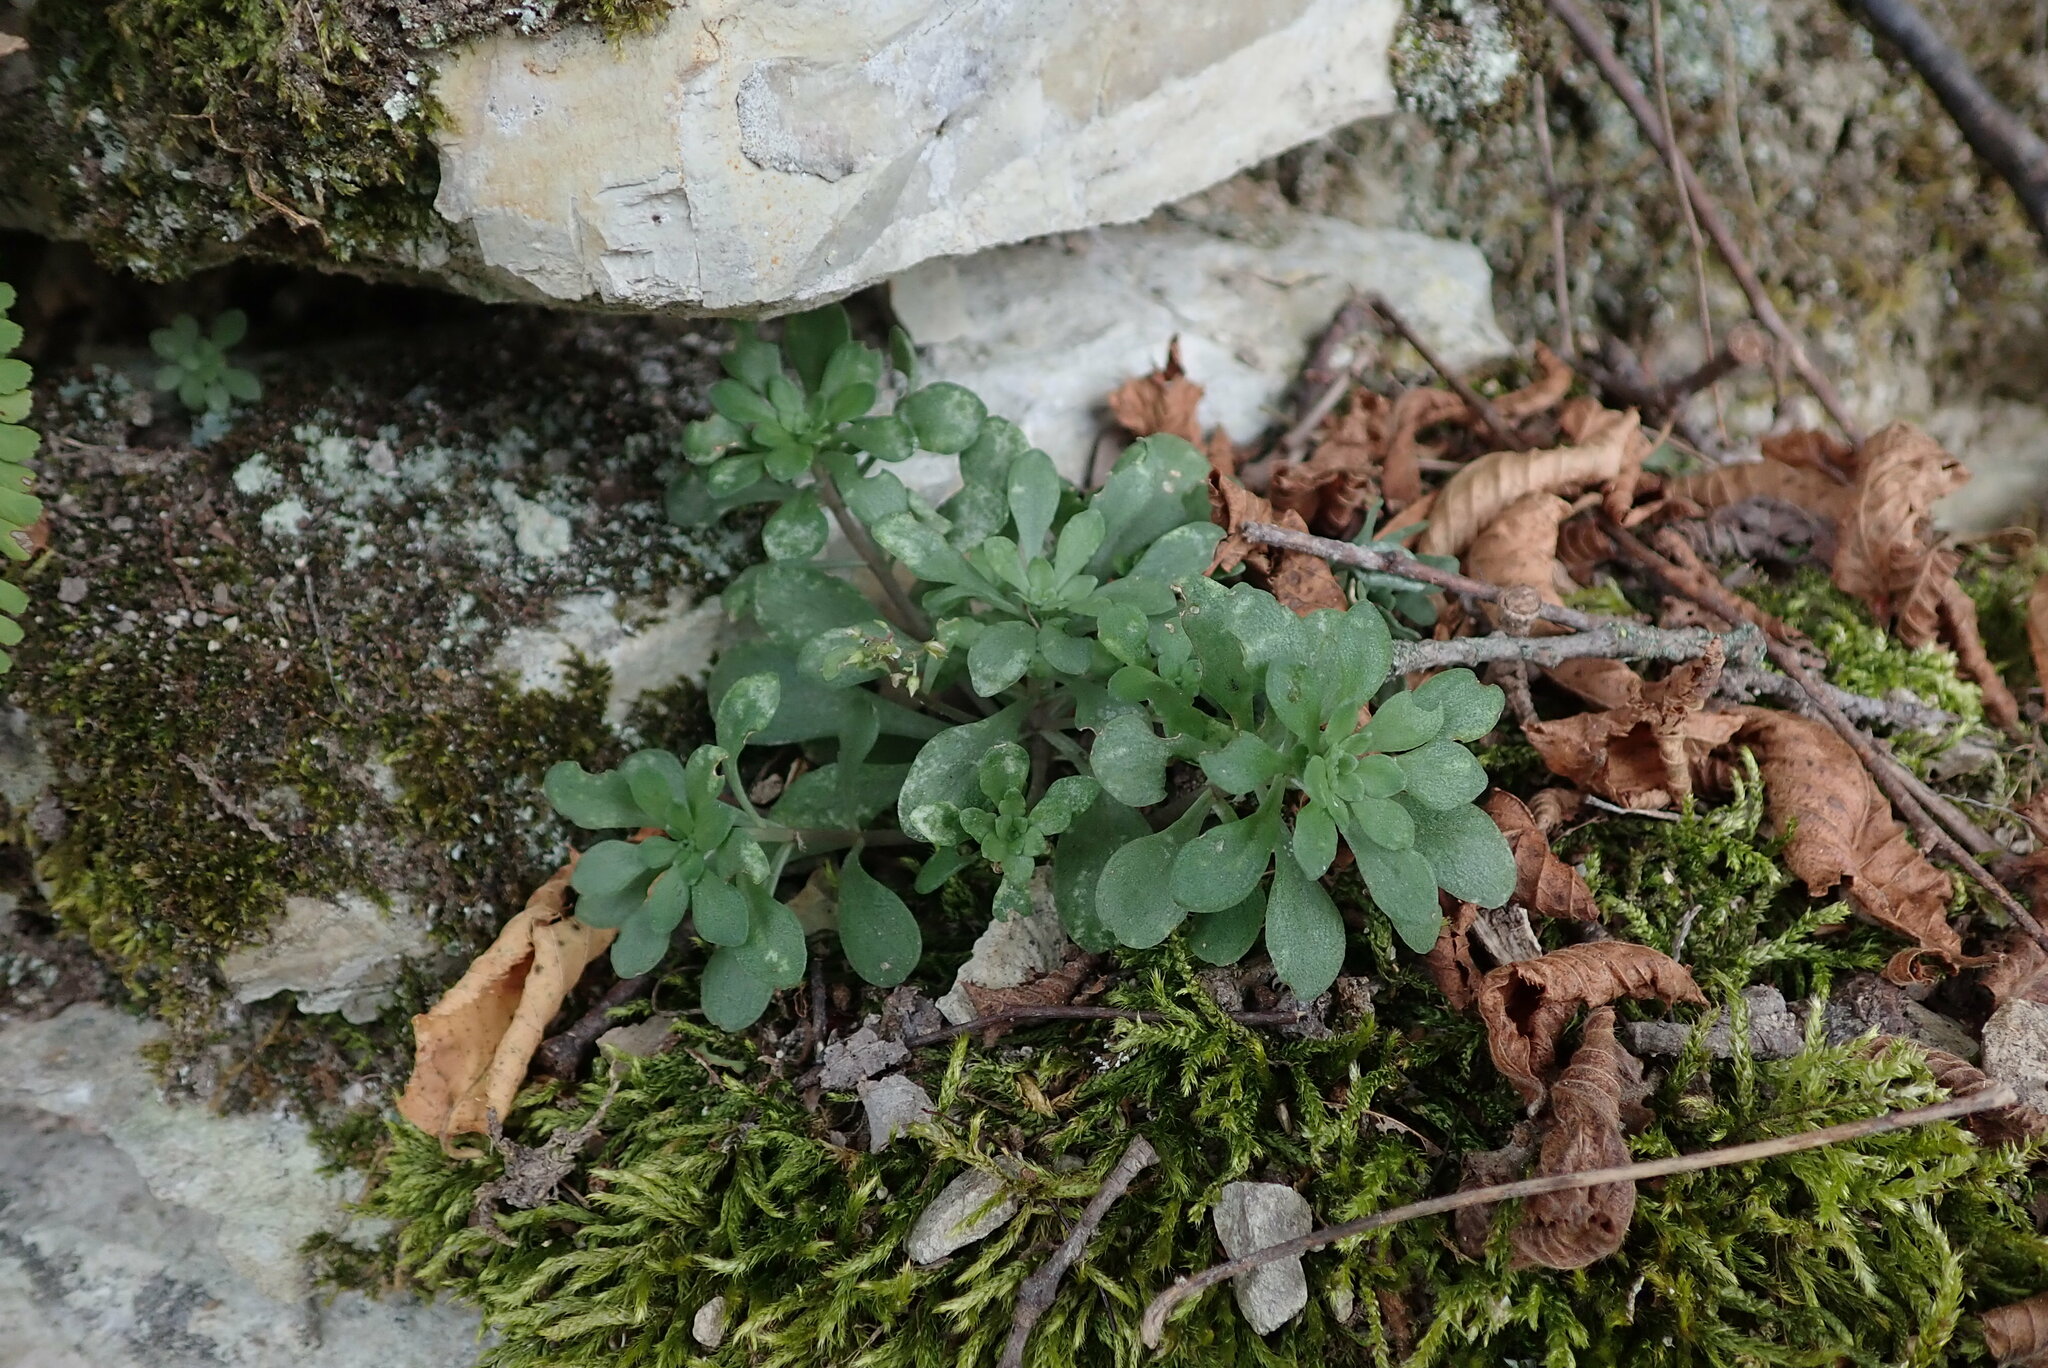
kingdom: Plantae
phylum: Tracheophyta
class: Magnoliopsida
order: Saxifragales
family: Crassulaceae
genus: Sedum
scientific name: Sedum cepaea
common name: Pink stonecrop
